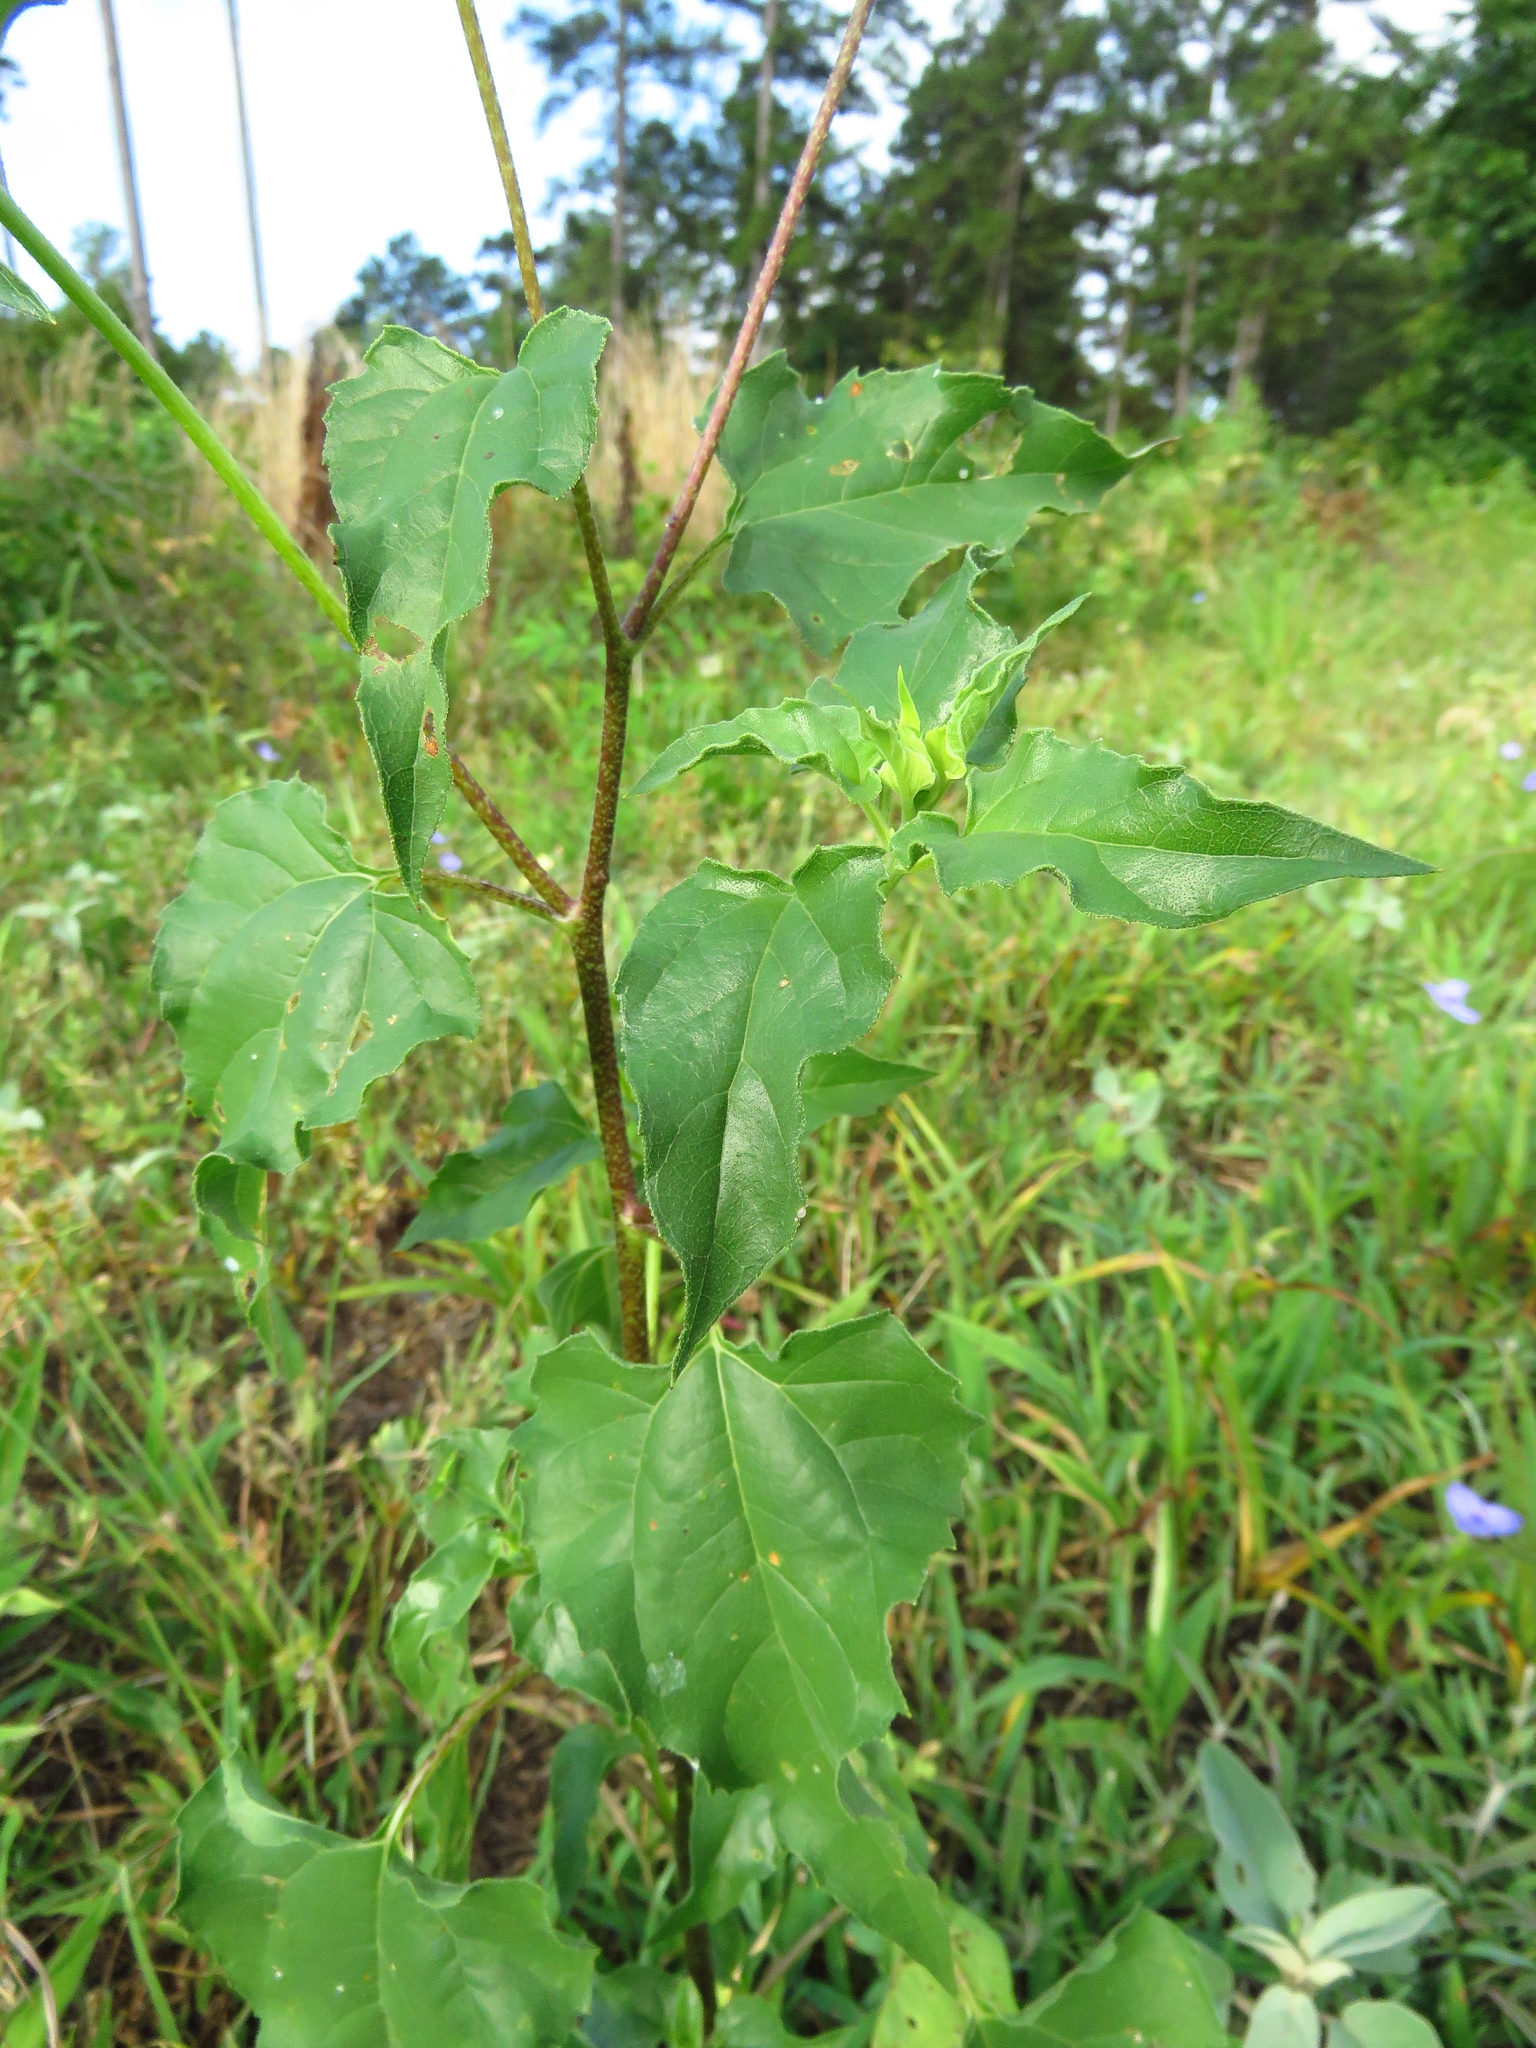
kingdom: Plantae
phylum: Tracheophyta
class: Magnoliopsida
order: Asterales
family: Asteraceae
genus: Helianthus
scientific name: Helianthus debilis
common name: Weak sunflower
